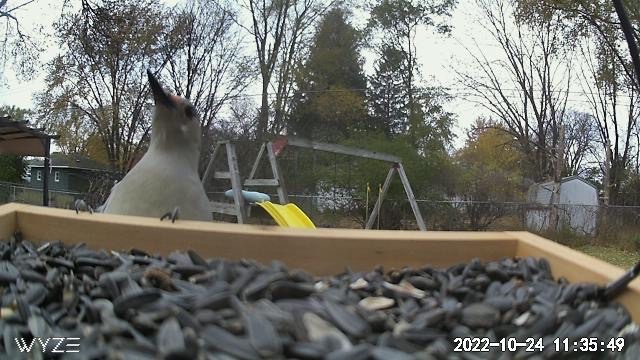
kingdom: Animalia
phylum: Chordata
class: Aves
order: Piciformes
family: Picidae
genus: Melanerpes
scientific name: Melanerpes carolinus
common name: Red-bellied woodpecker
